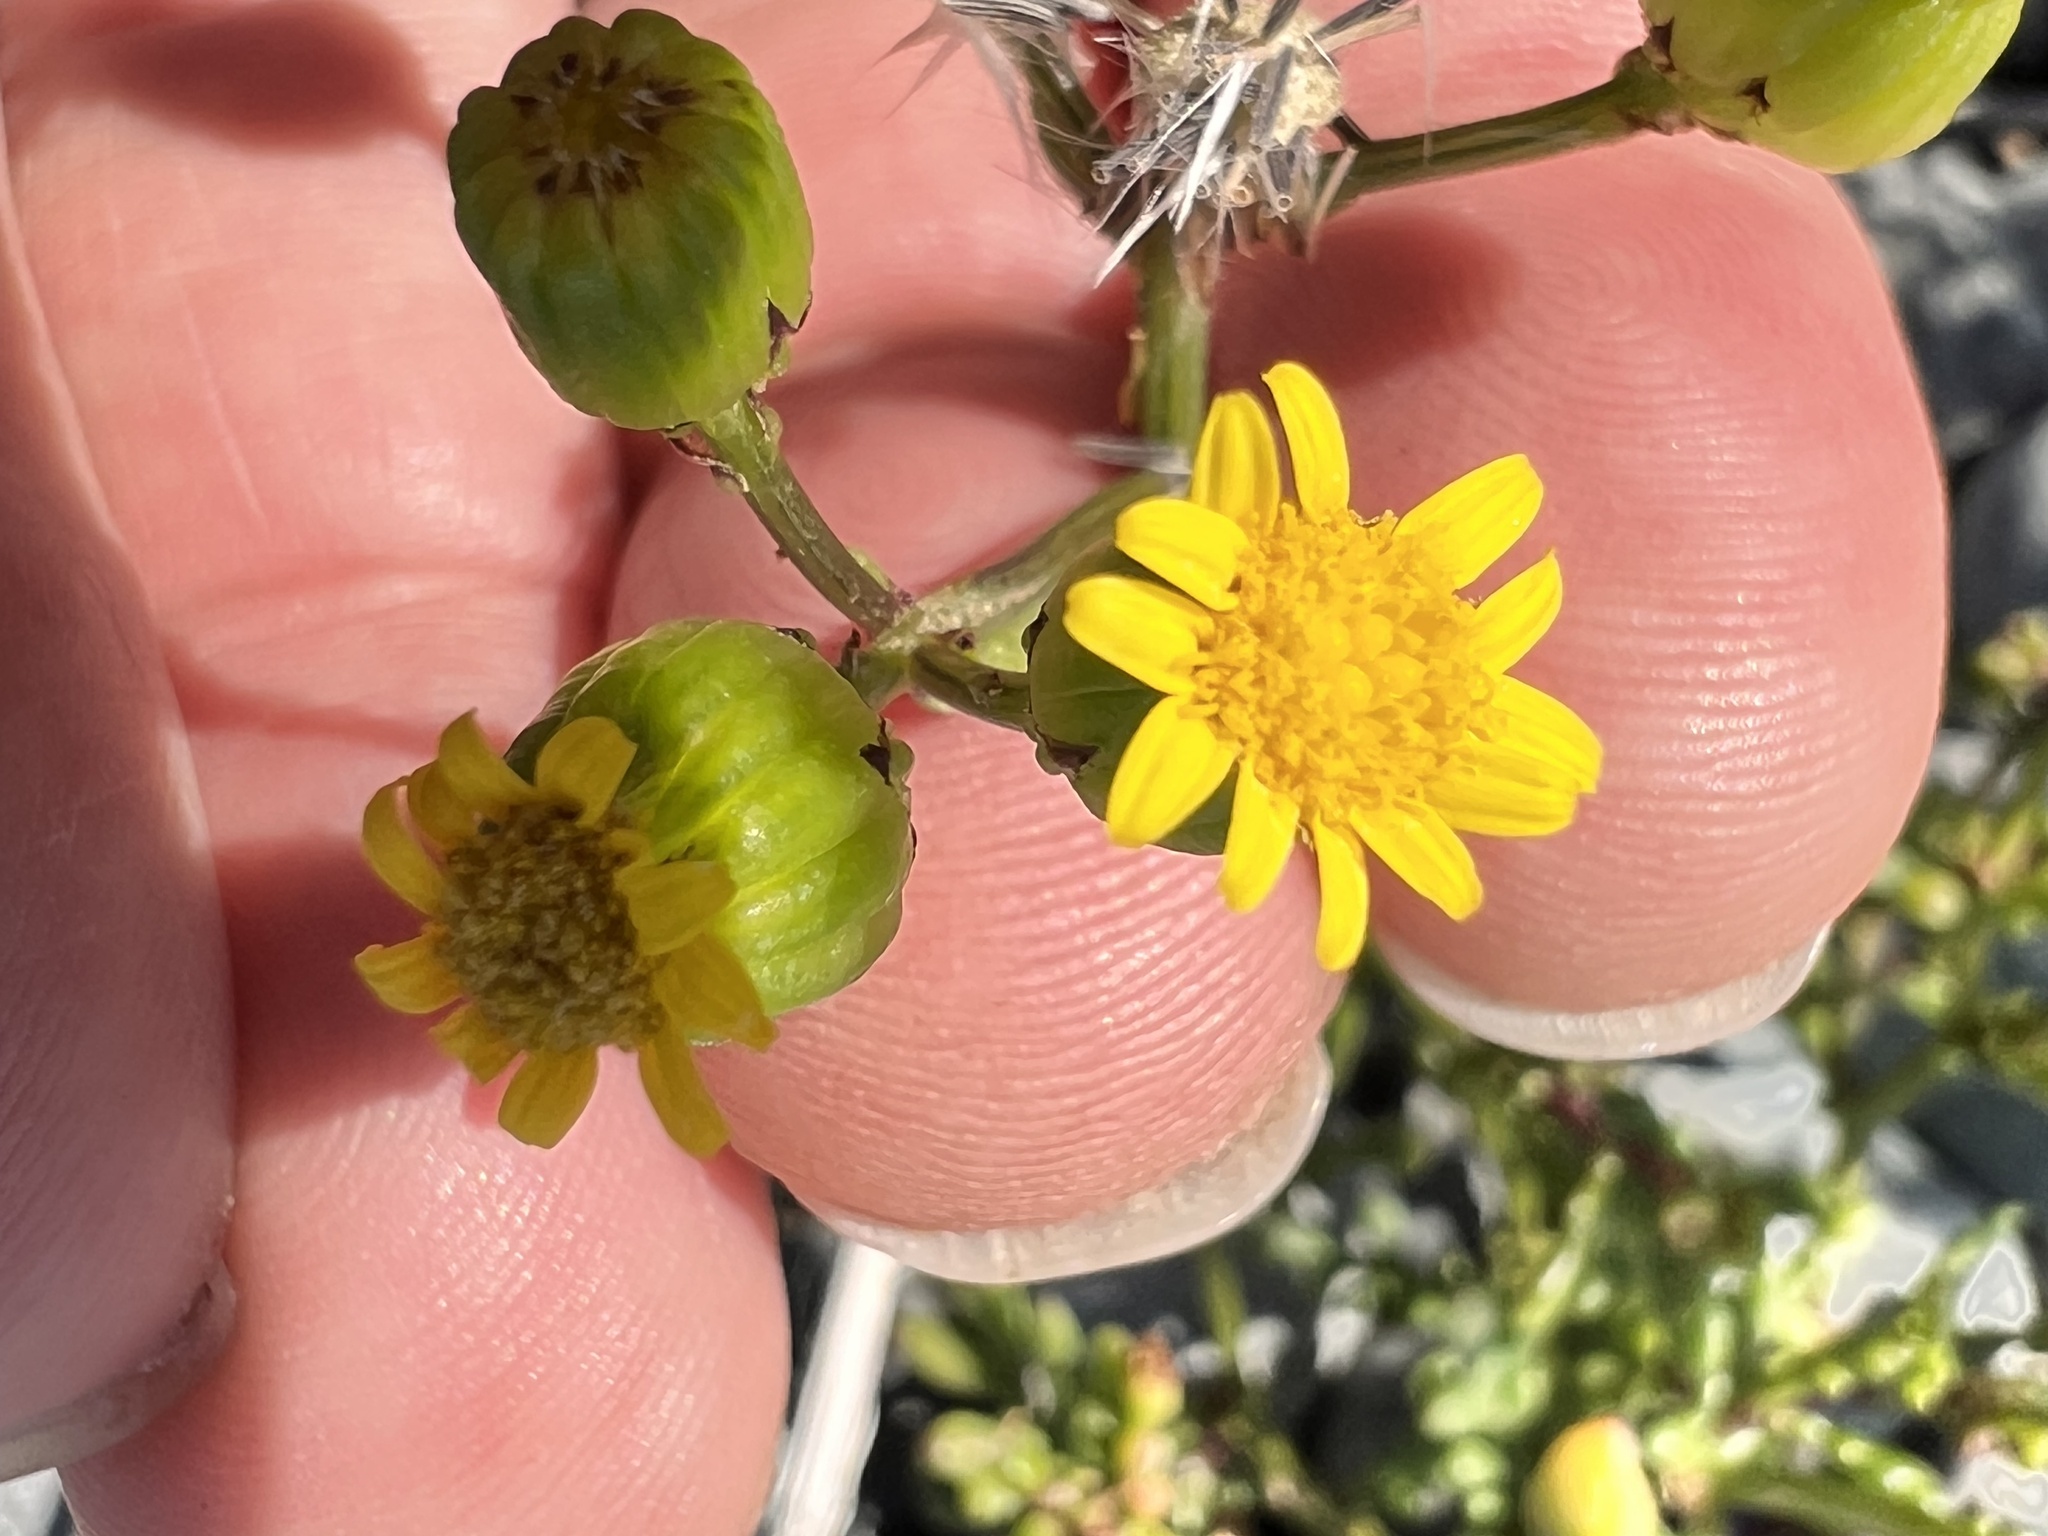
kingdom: Plantae
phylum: Tracheophyta
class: Magnoliopsida
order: Asterales
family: Asteraceae
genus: Senecio
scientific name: Senecio lautus
